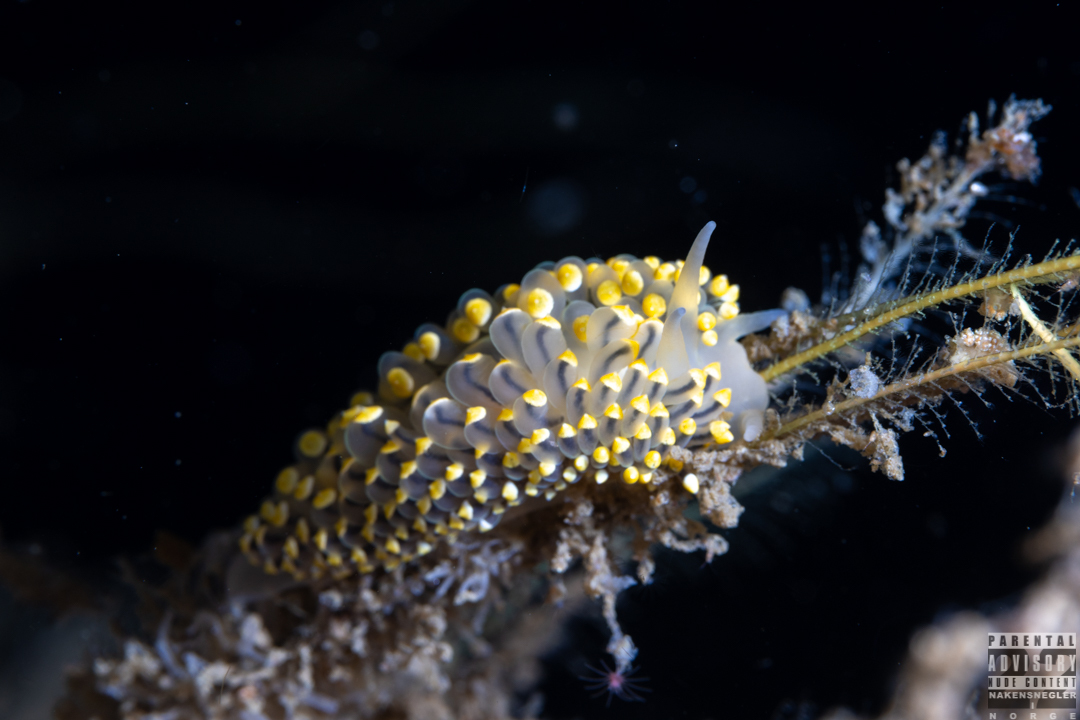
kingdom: Animalia
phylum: Mollusca
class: Gastropoda
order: Nudibranchia
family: Eubranchidae
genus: Eubranchus
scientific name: Eubranchus tricolor
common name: Painted balloon aeolis
